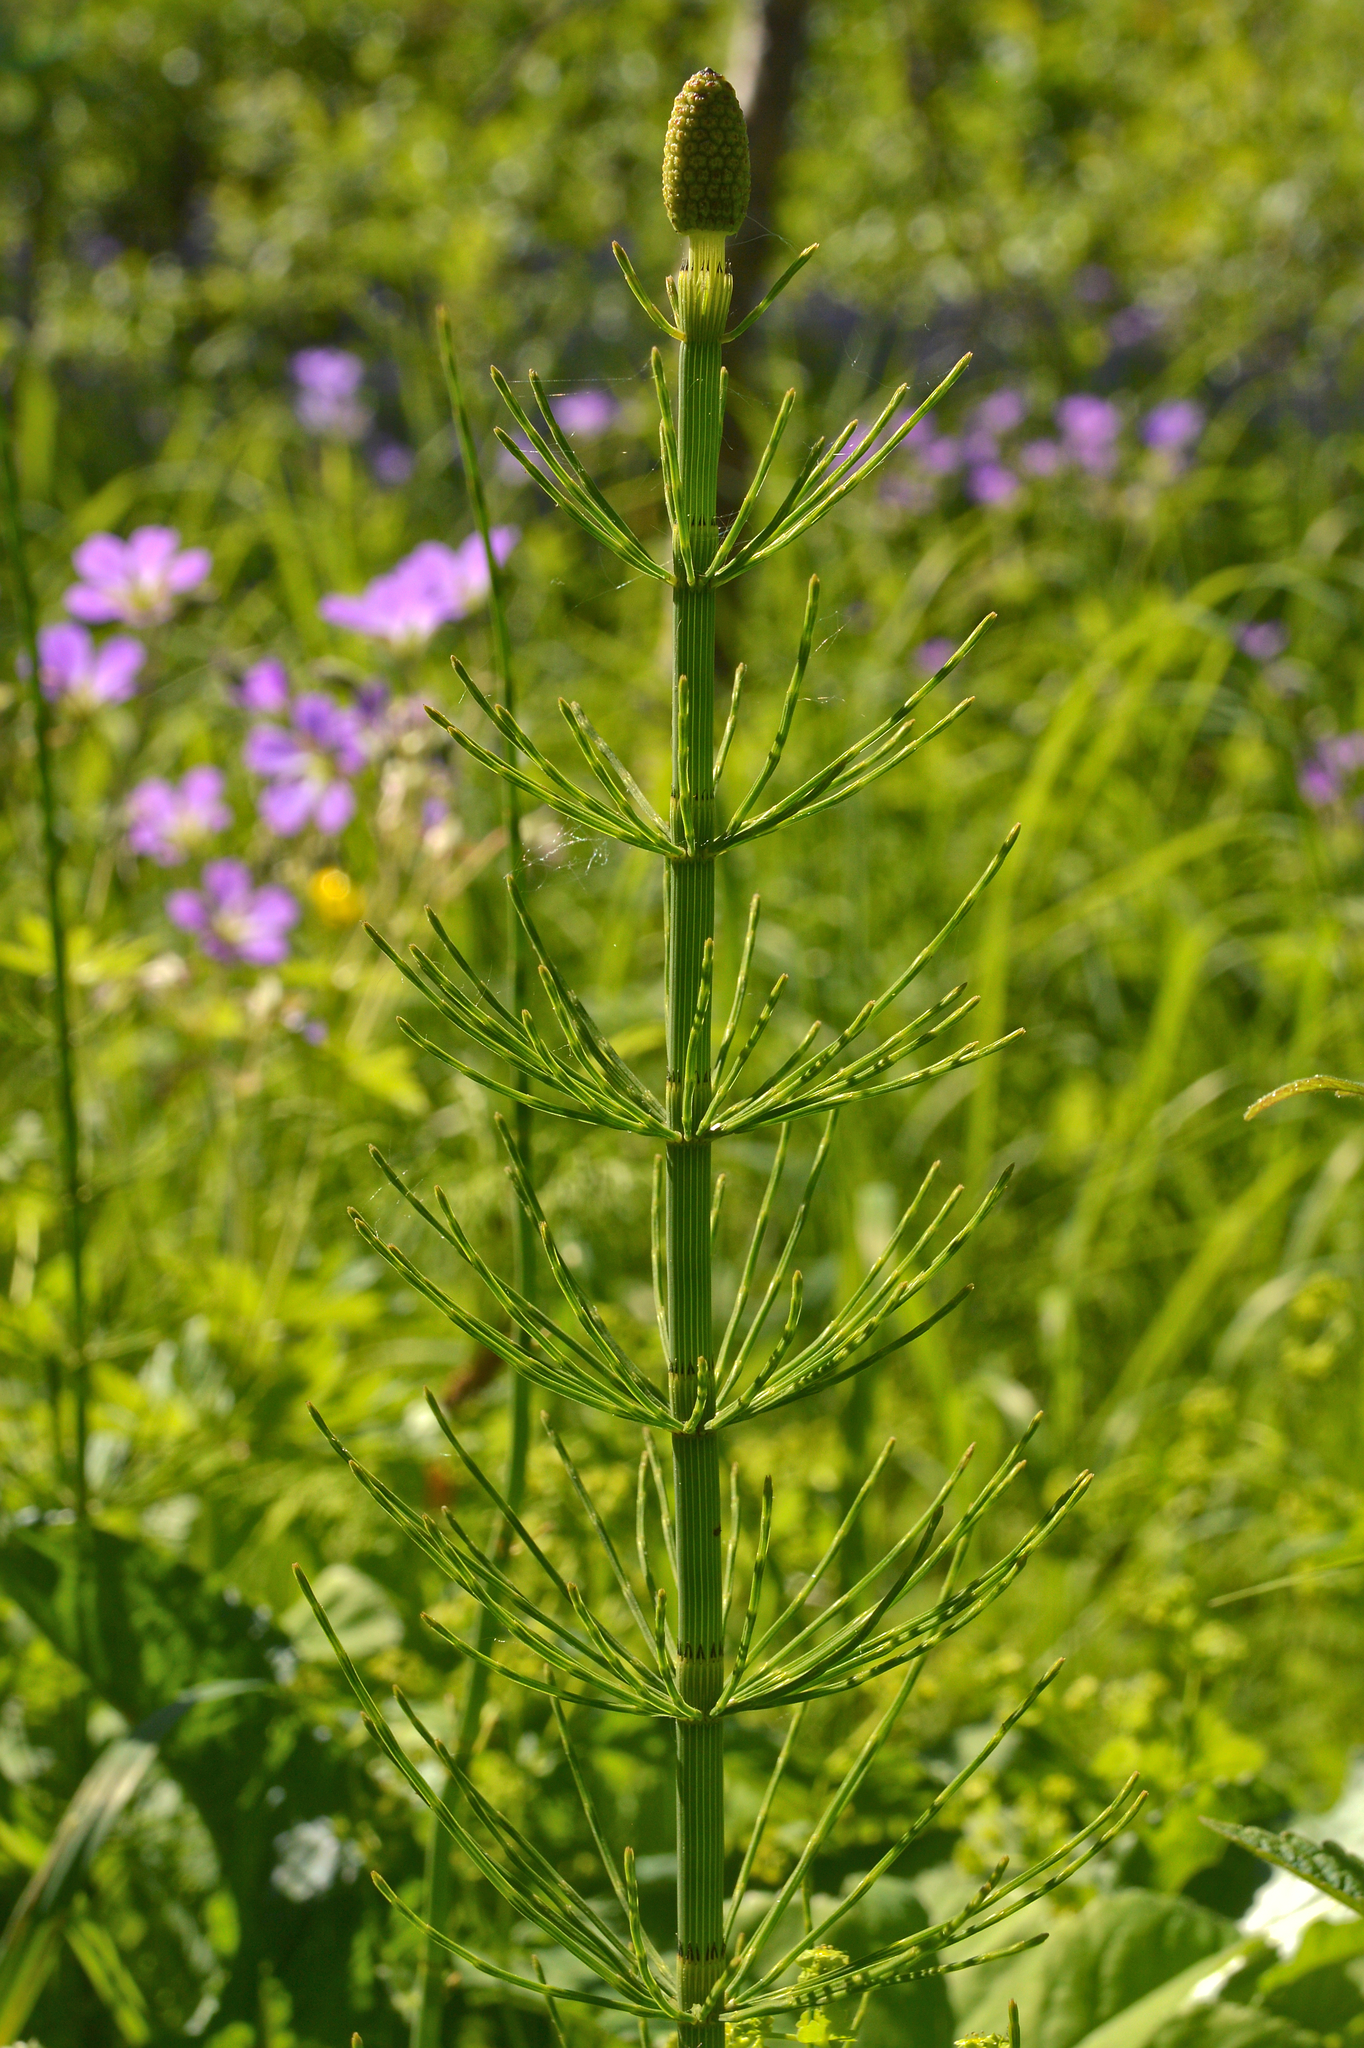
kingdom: Plantae
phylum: Tracheophyta
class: Polypodiopsida
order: Equisetales
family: Equisetaceae
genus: Equisetum
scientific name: Equisetum fluviatile
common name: Water horsetail
